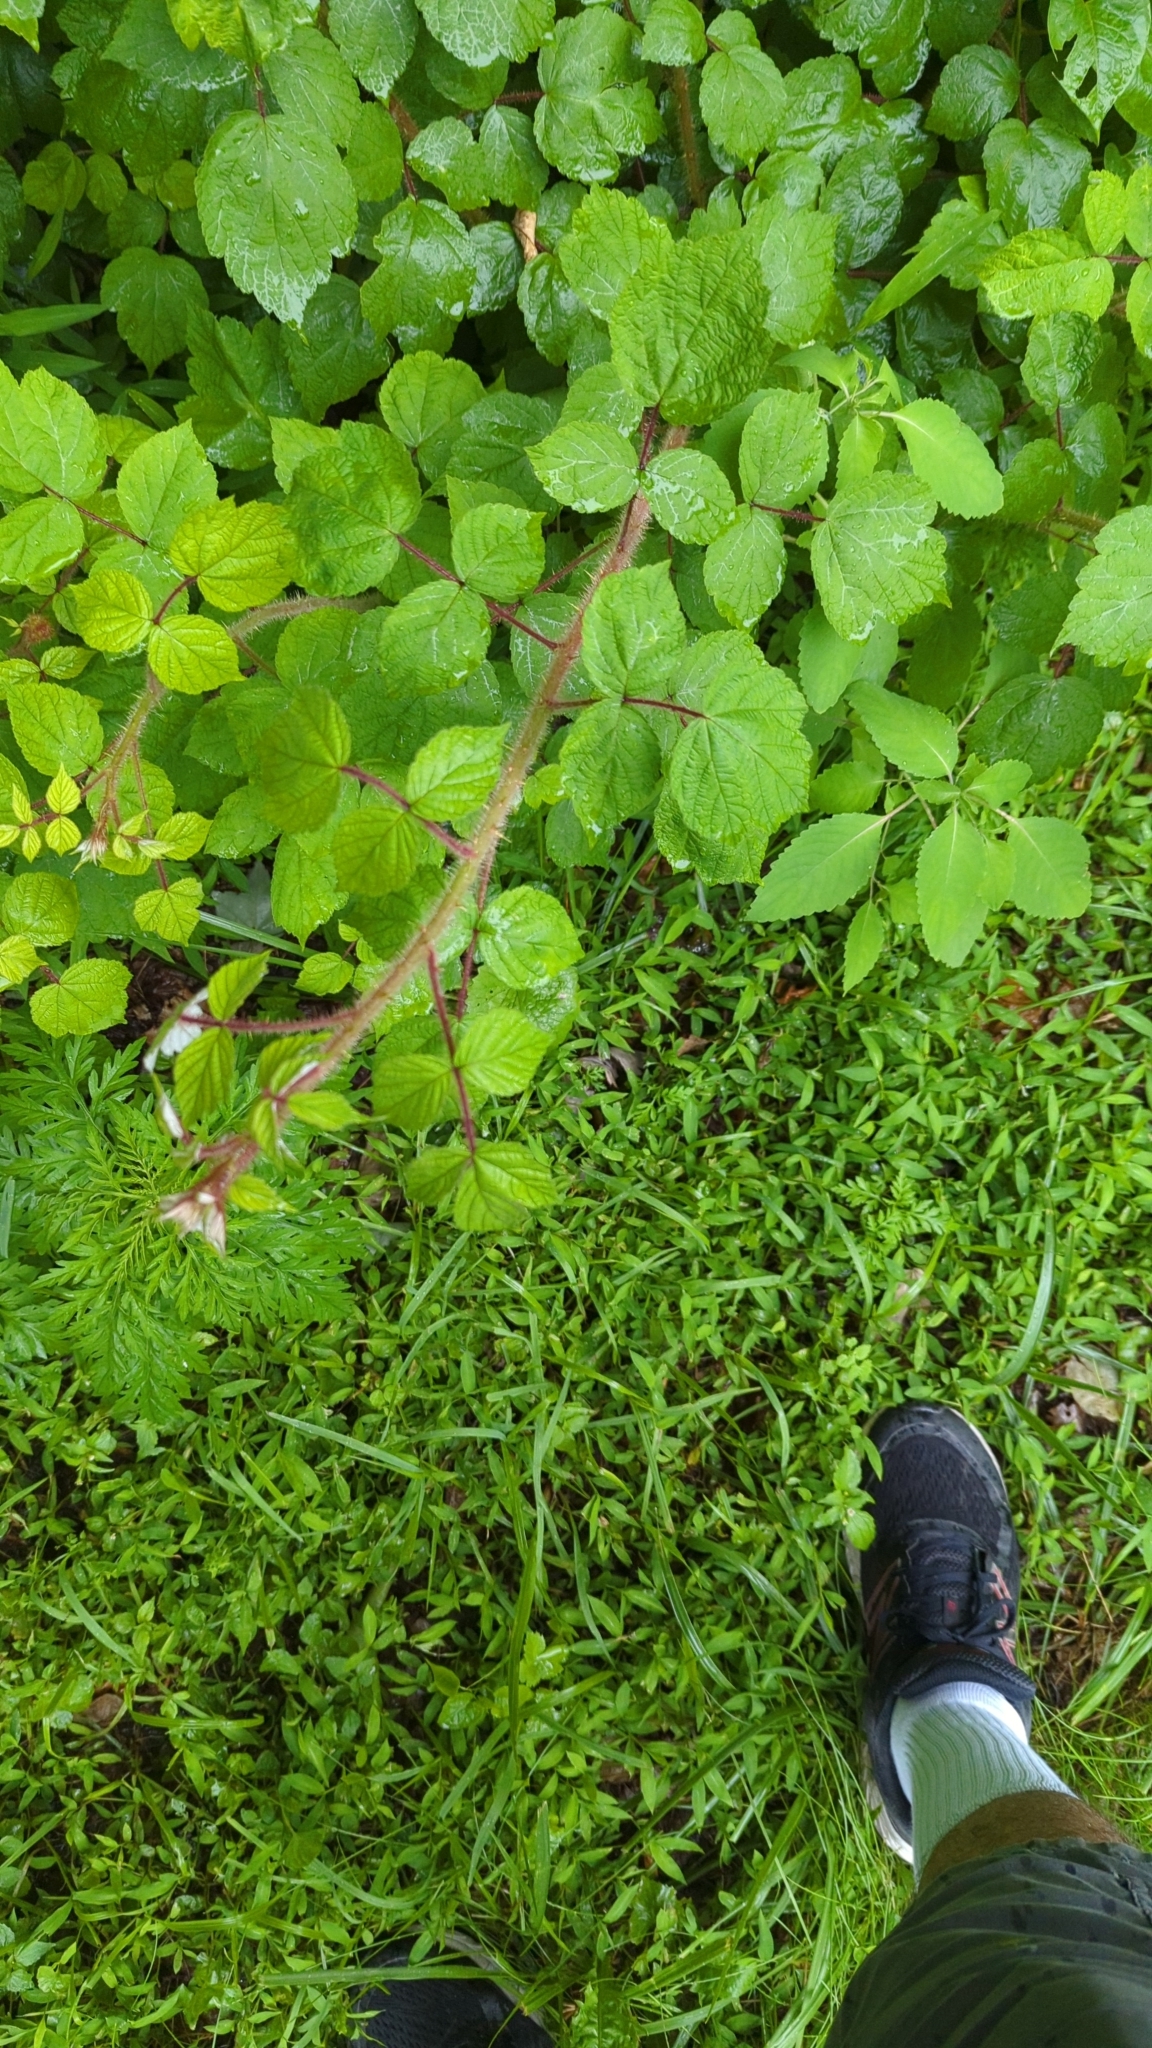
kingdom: Plantae
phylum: Tracheophyta
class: Magnoliopsida
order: Rosales
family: Rosaceae
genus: Rubus
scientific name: Rubus phoenicolasius
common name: Japanese wineberry
